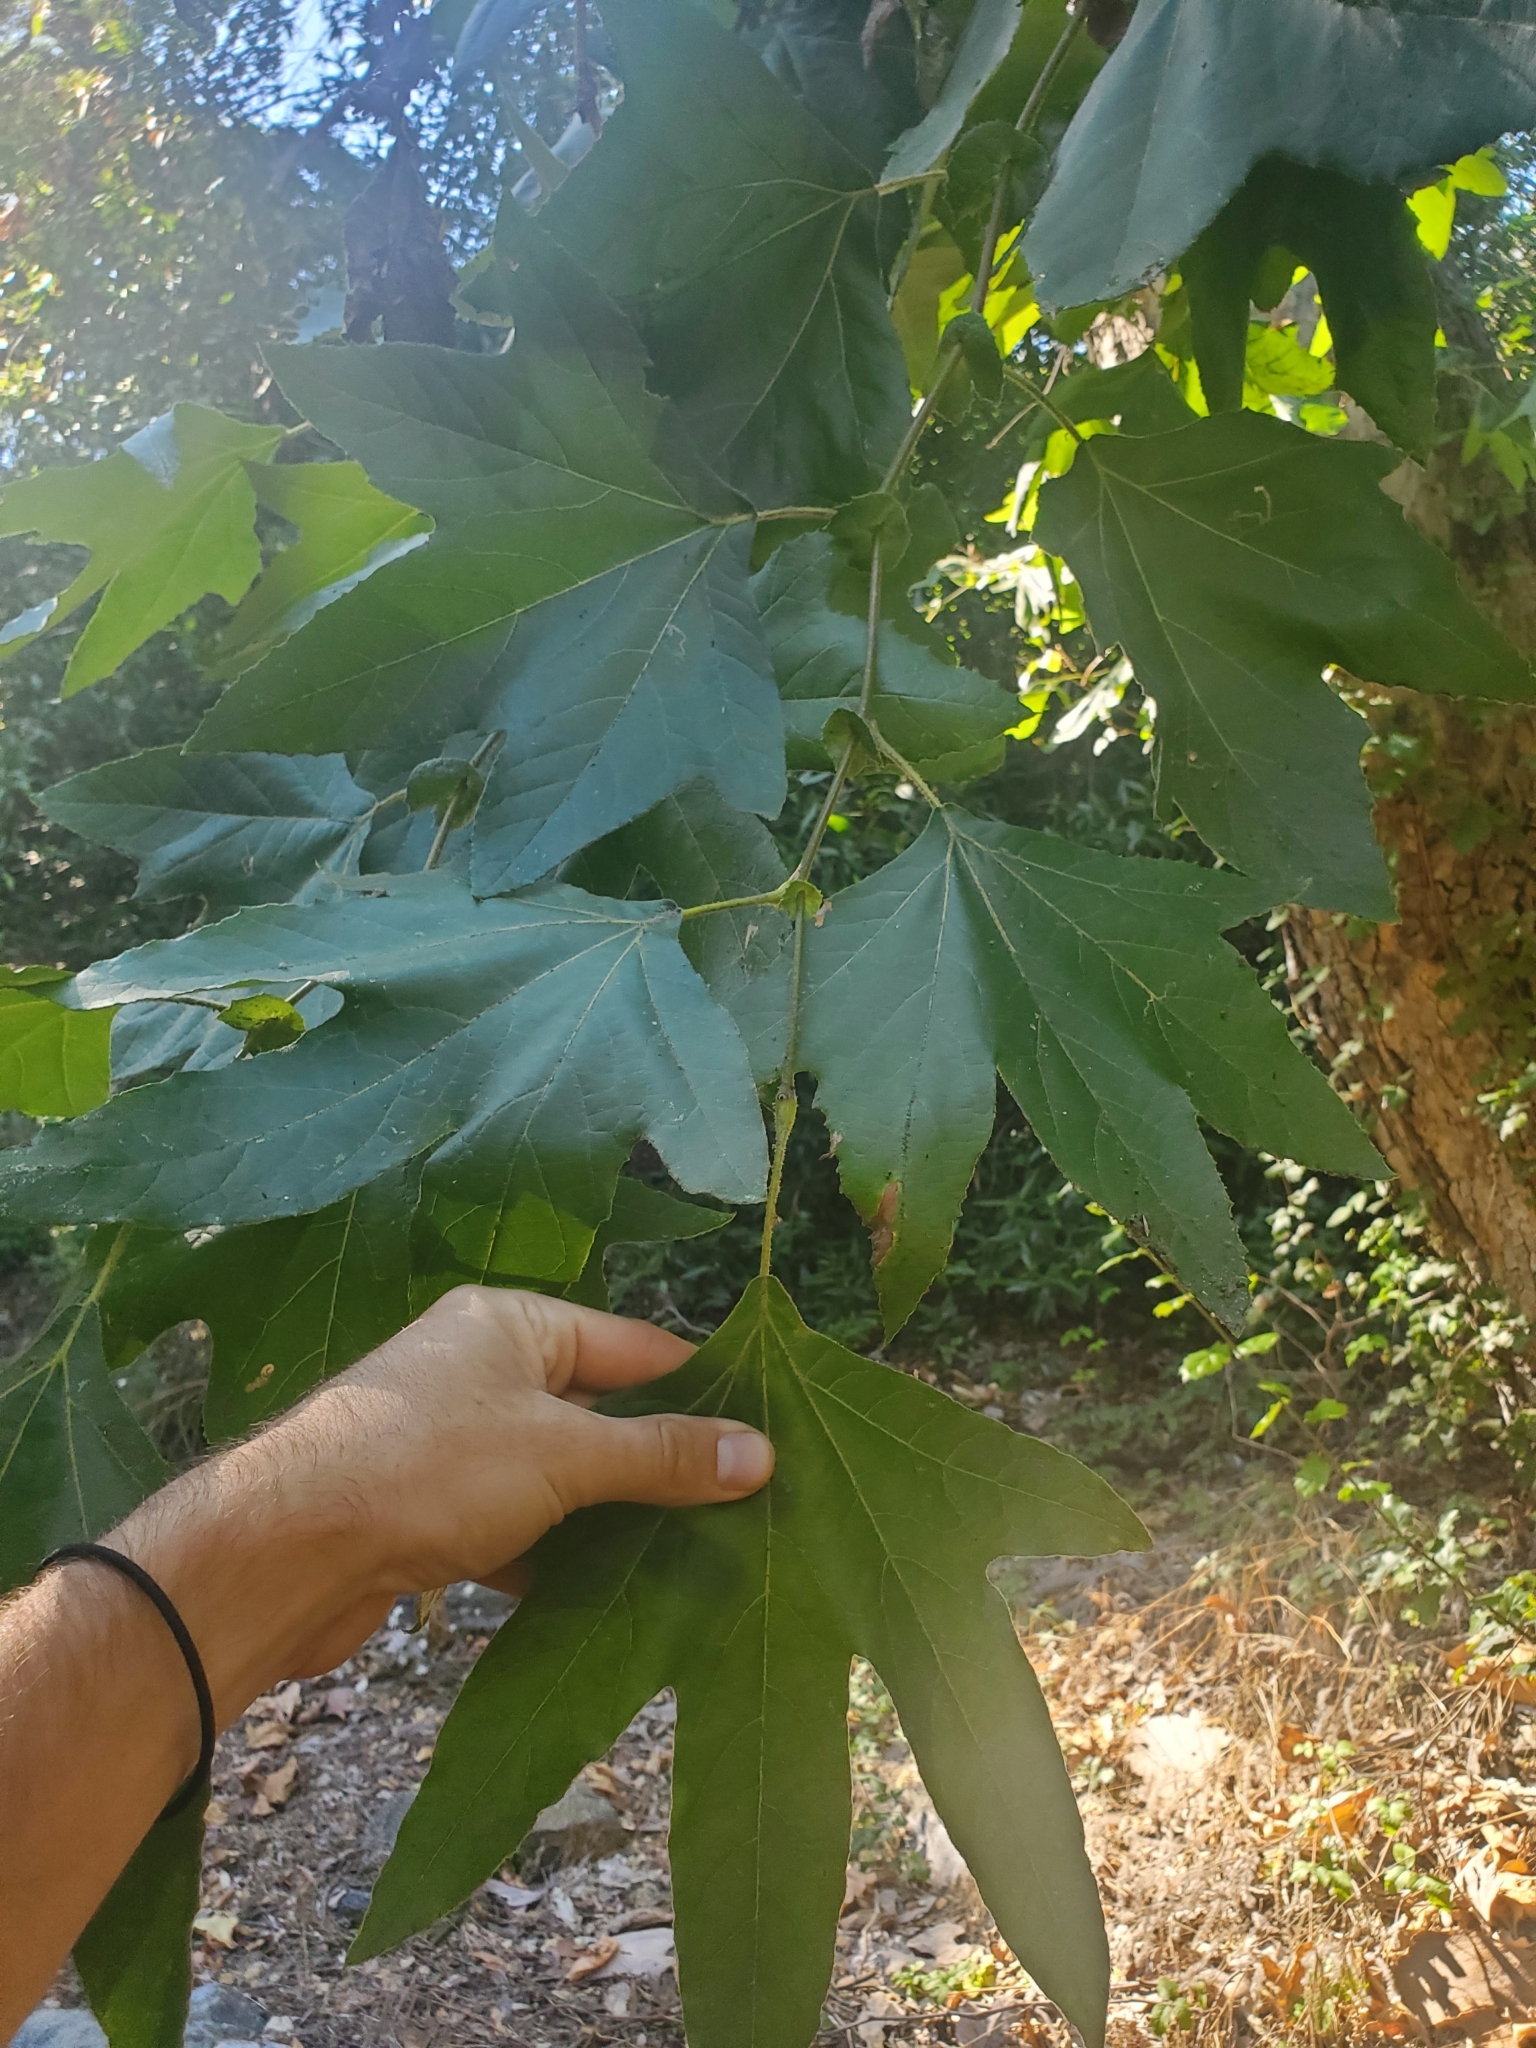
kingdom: Plantae
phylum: Tracheophyta
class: Magnoliopsida
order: Proteales
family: Platanaceae
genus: Platanus
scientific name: Platanus racemosa
